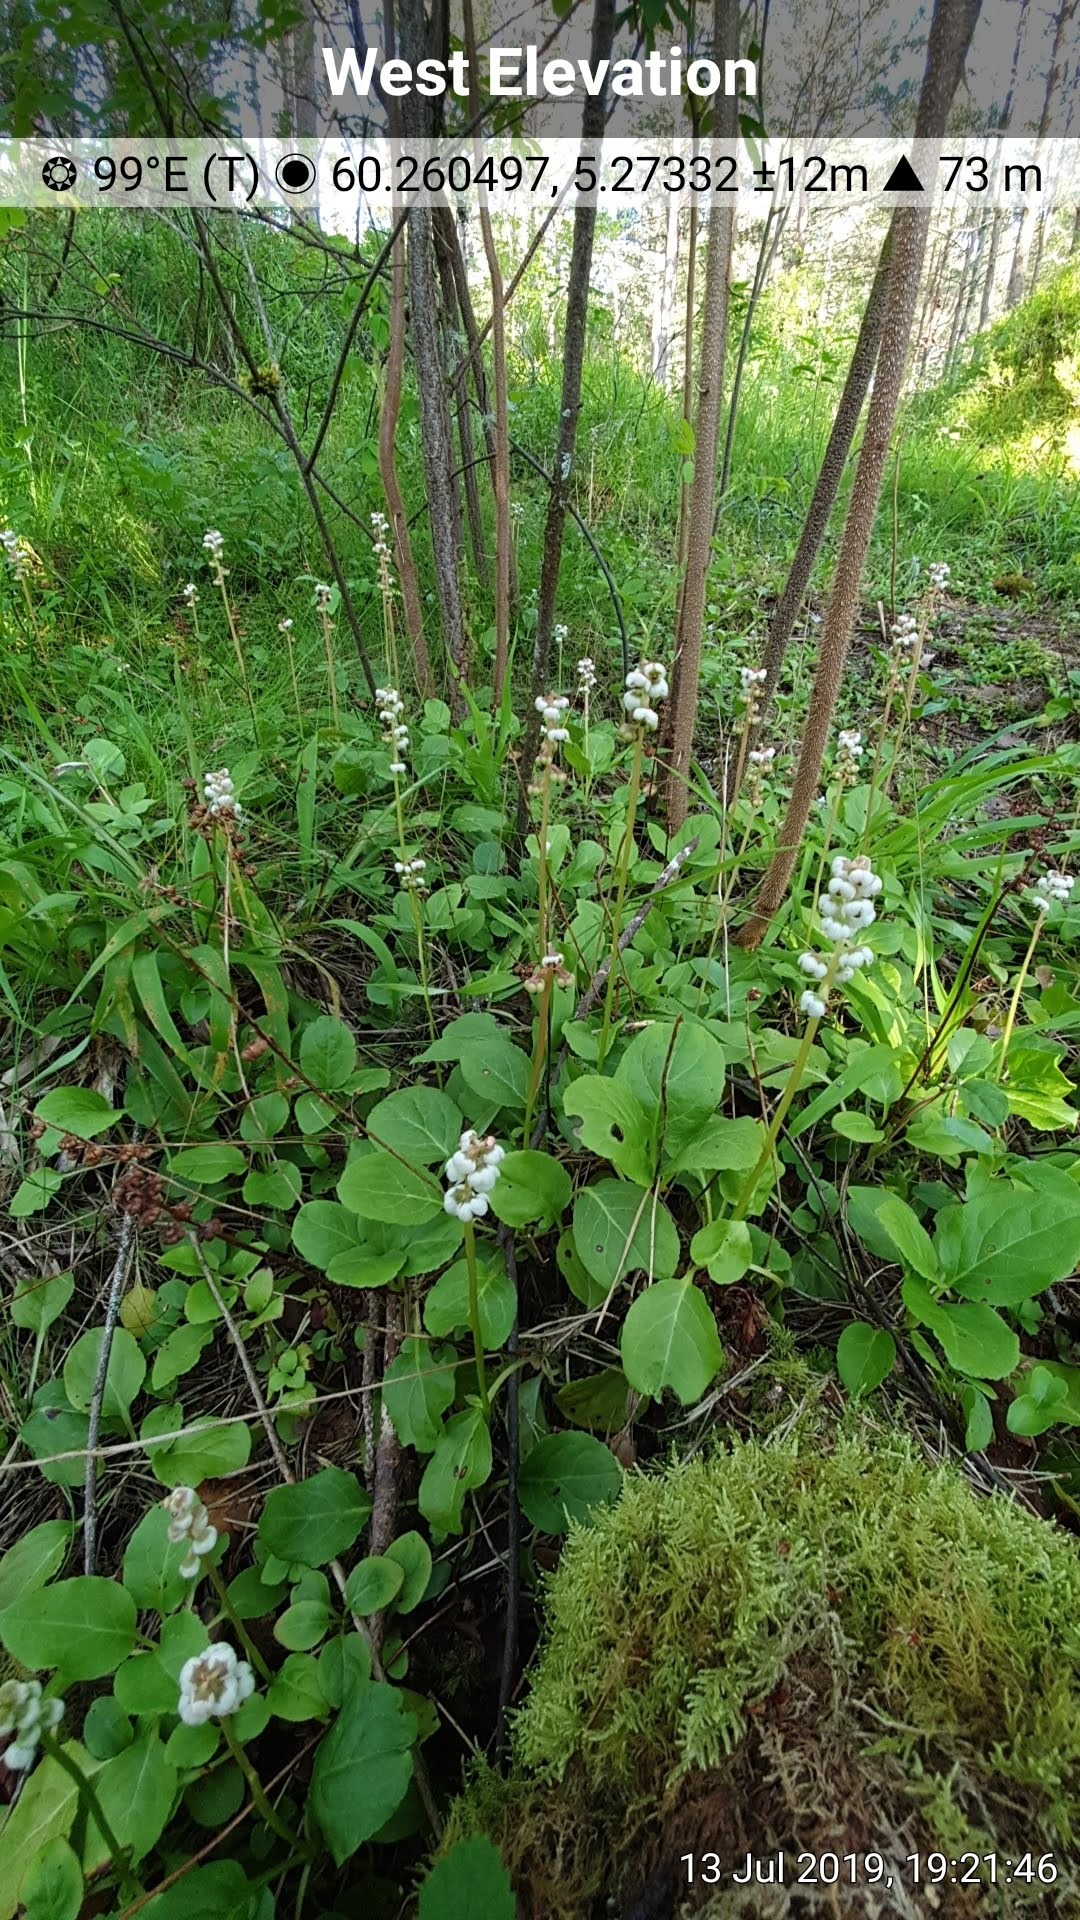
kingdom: Plantae
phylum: Tracheophyta
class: Magnoliopsida
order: Ericales
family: Ericaceae
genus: Pyrola
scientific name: Pyrola minor
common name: Common wintergreen
